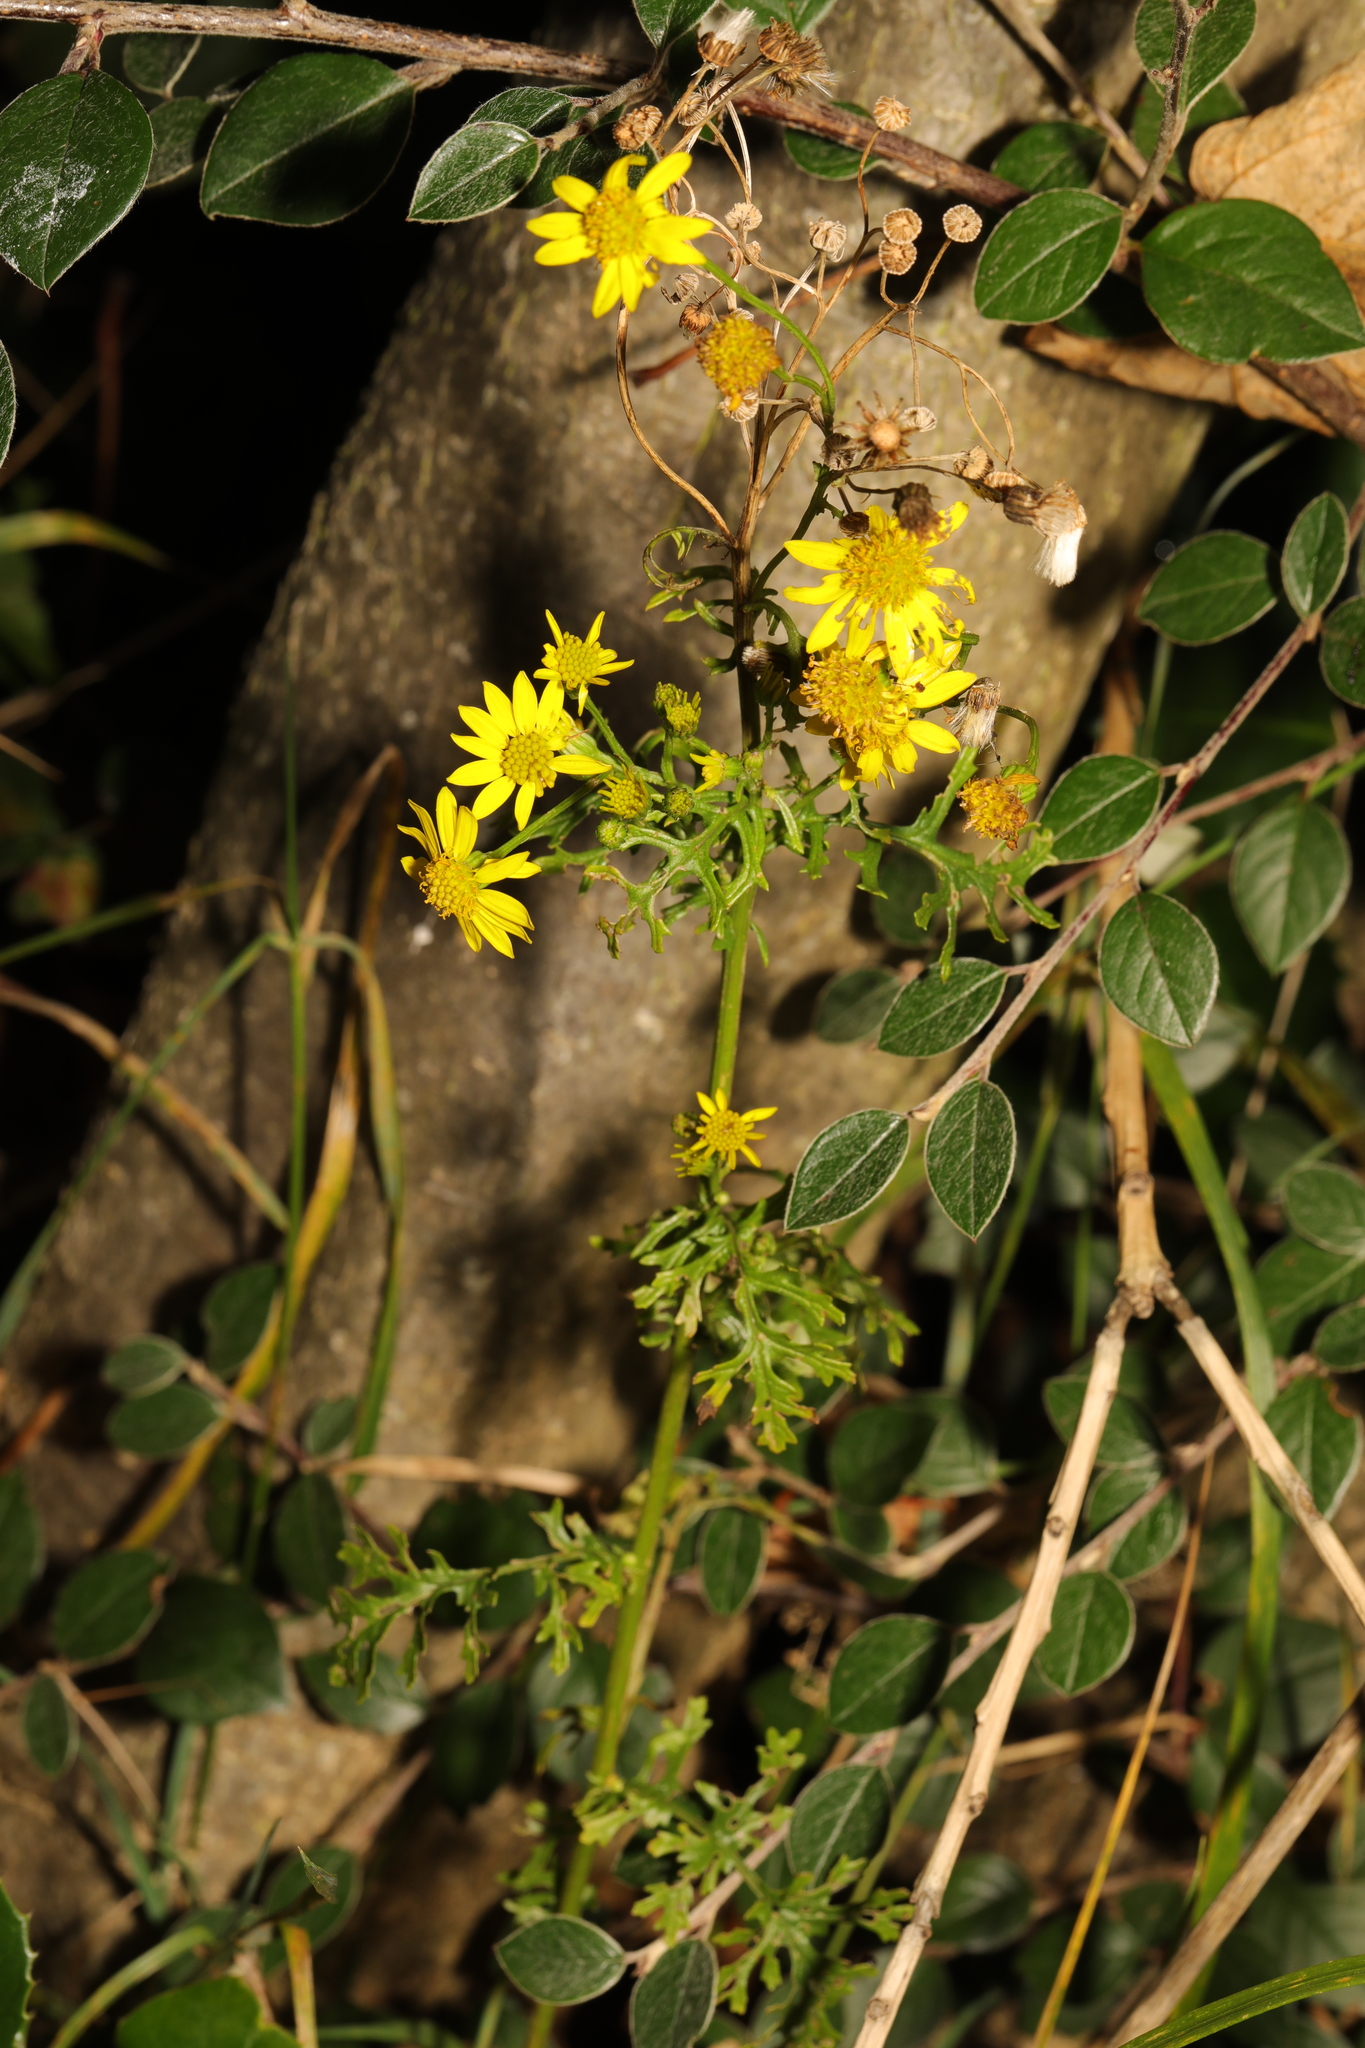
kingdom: Plantae
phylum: Tracheophyta
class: Magnoliopsida
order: Asterales
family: Asteraceae
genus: Jacobaea
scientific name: Jacobaea vulgaris
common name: Stinking willie
